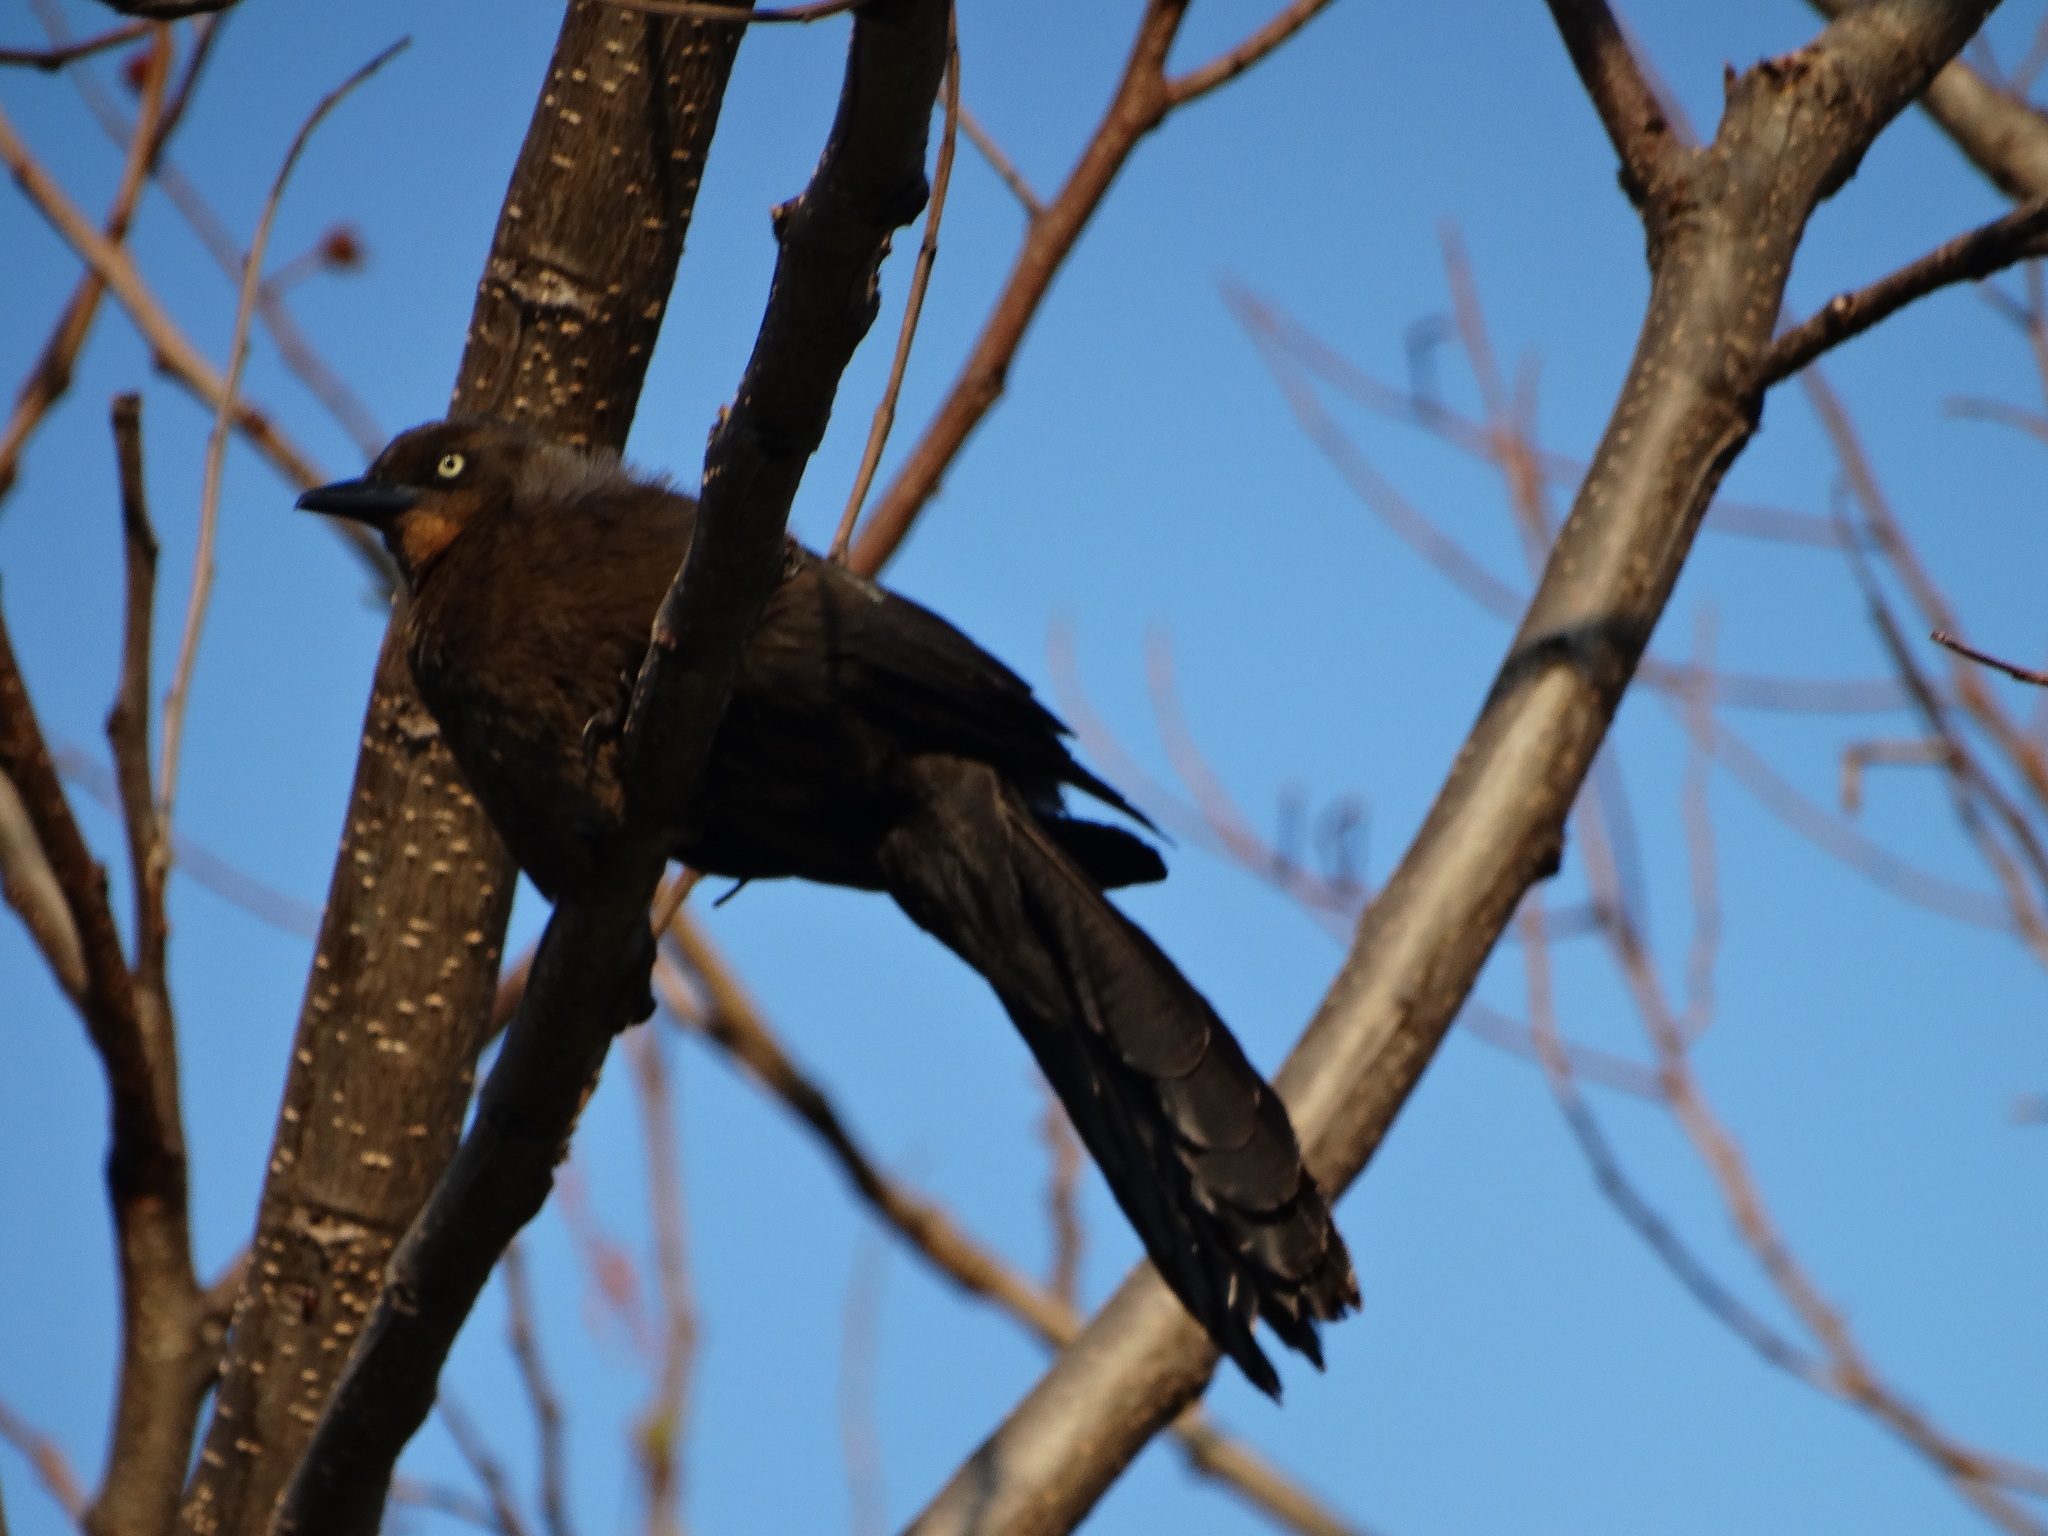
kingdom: Animalia
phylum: Chordata
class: Aves
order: Passeriformes
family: Icteridae
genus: Quiscalus
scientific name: Quiscalus mexicanus
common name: Great-tailed grackle
